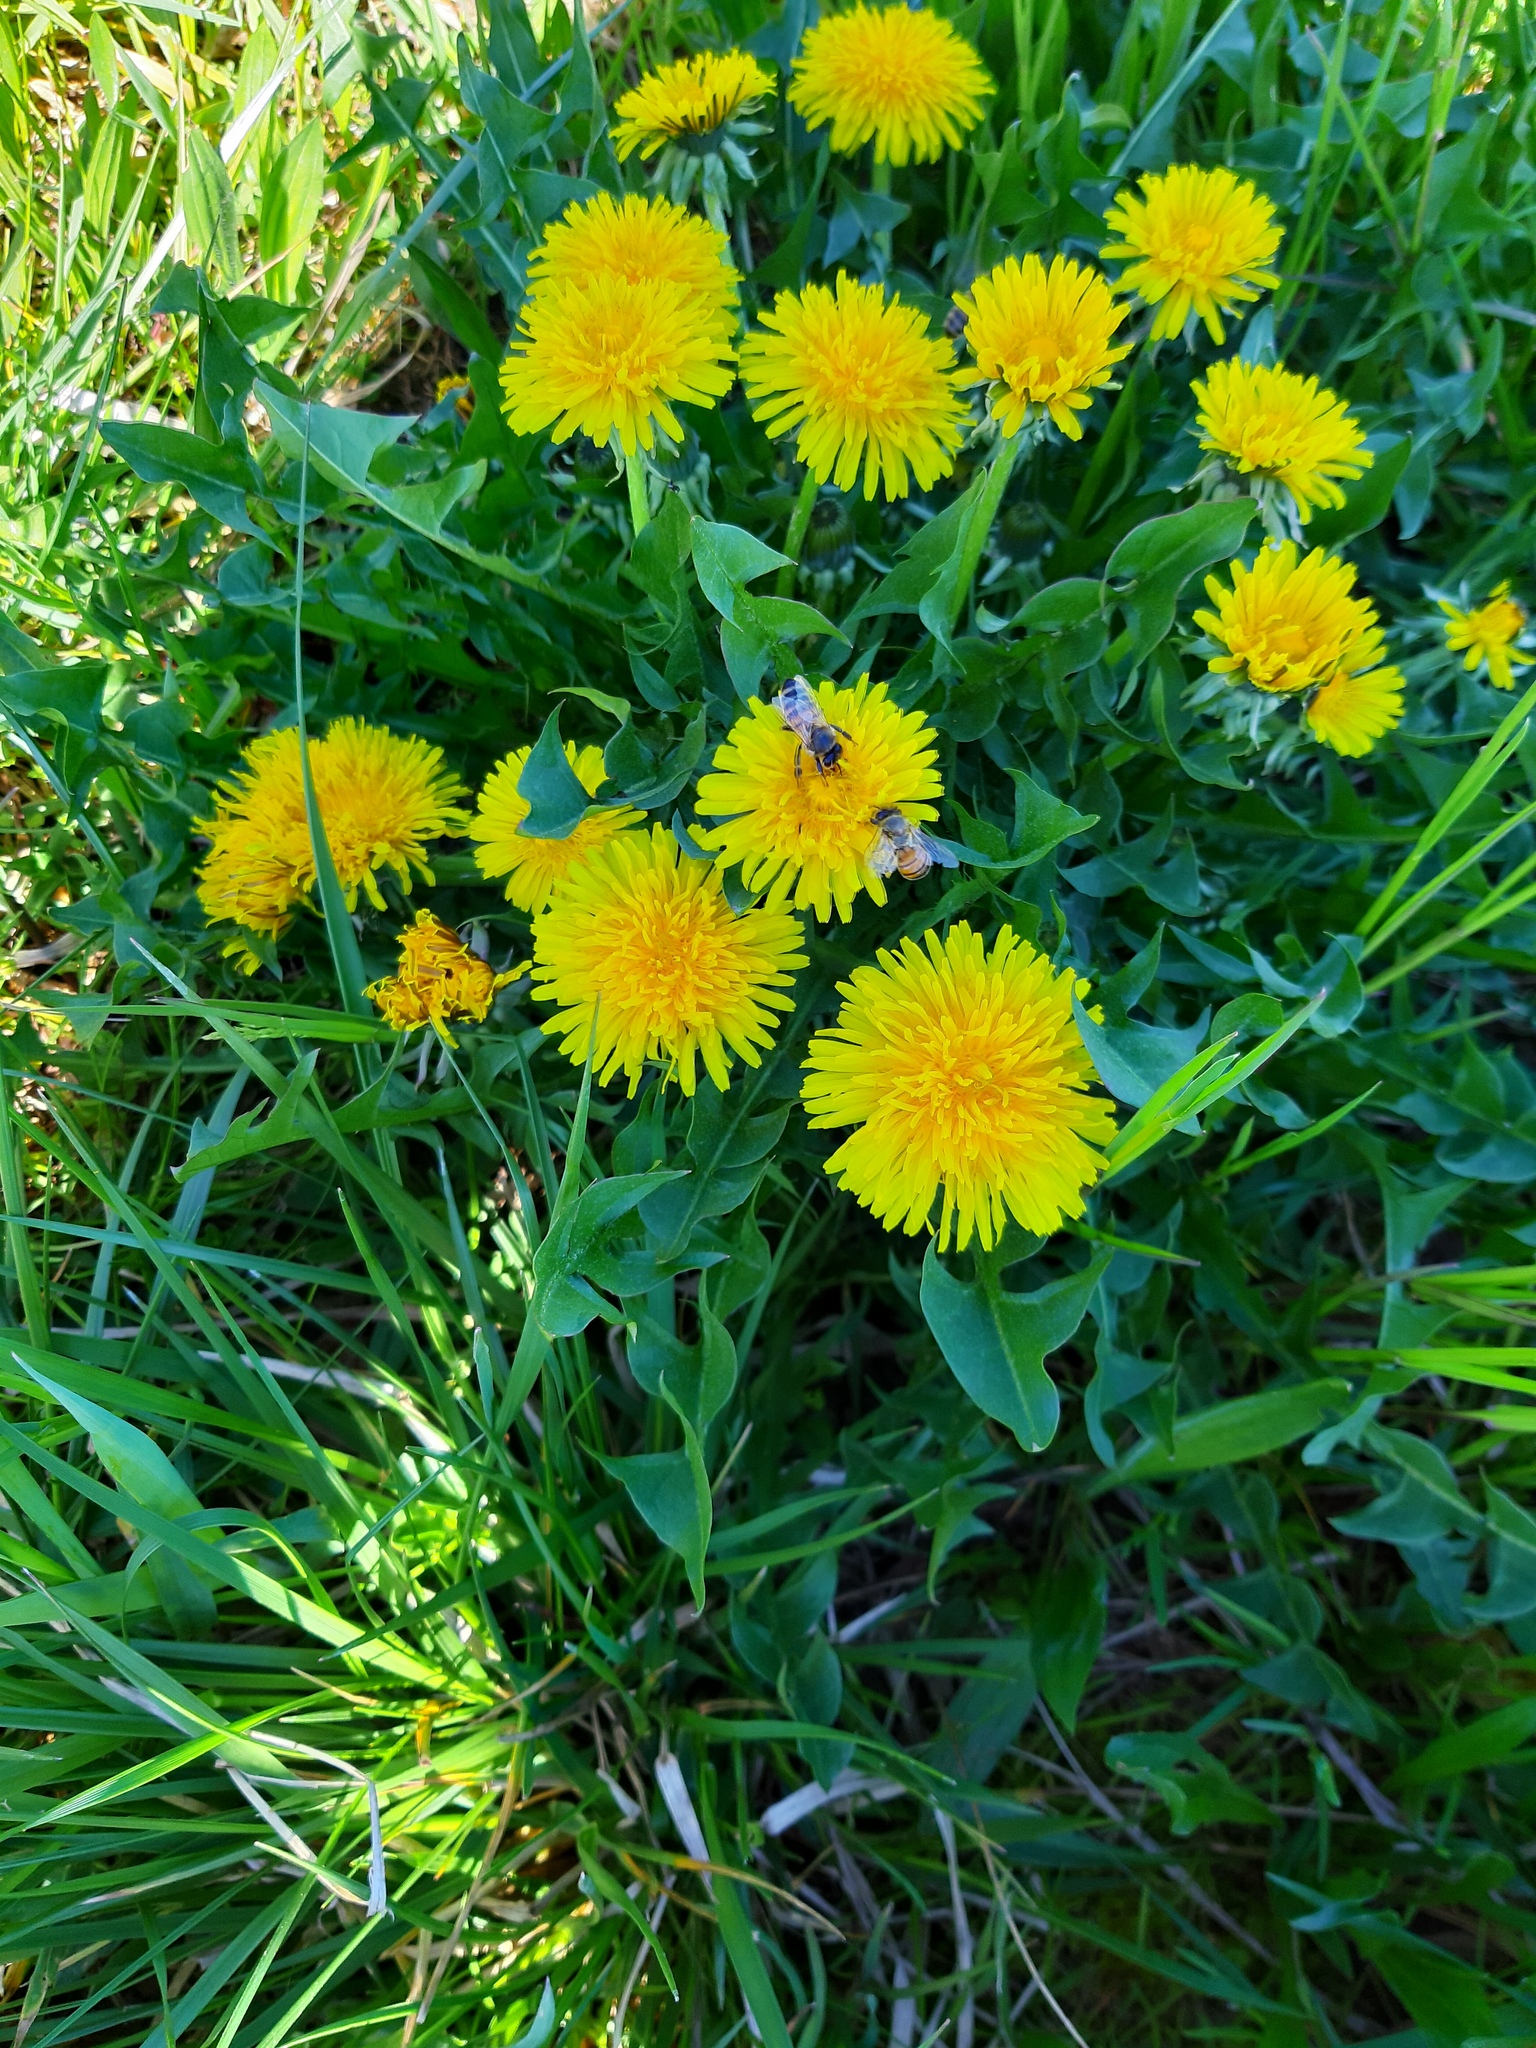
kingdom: Plantae
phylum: Tracheophyta
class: Magnoliopsida
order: Asterales
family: Asteraceae
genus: Taraxacum
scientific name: Taraxacum officinale
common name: Common dandelion
